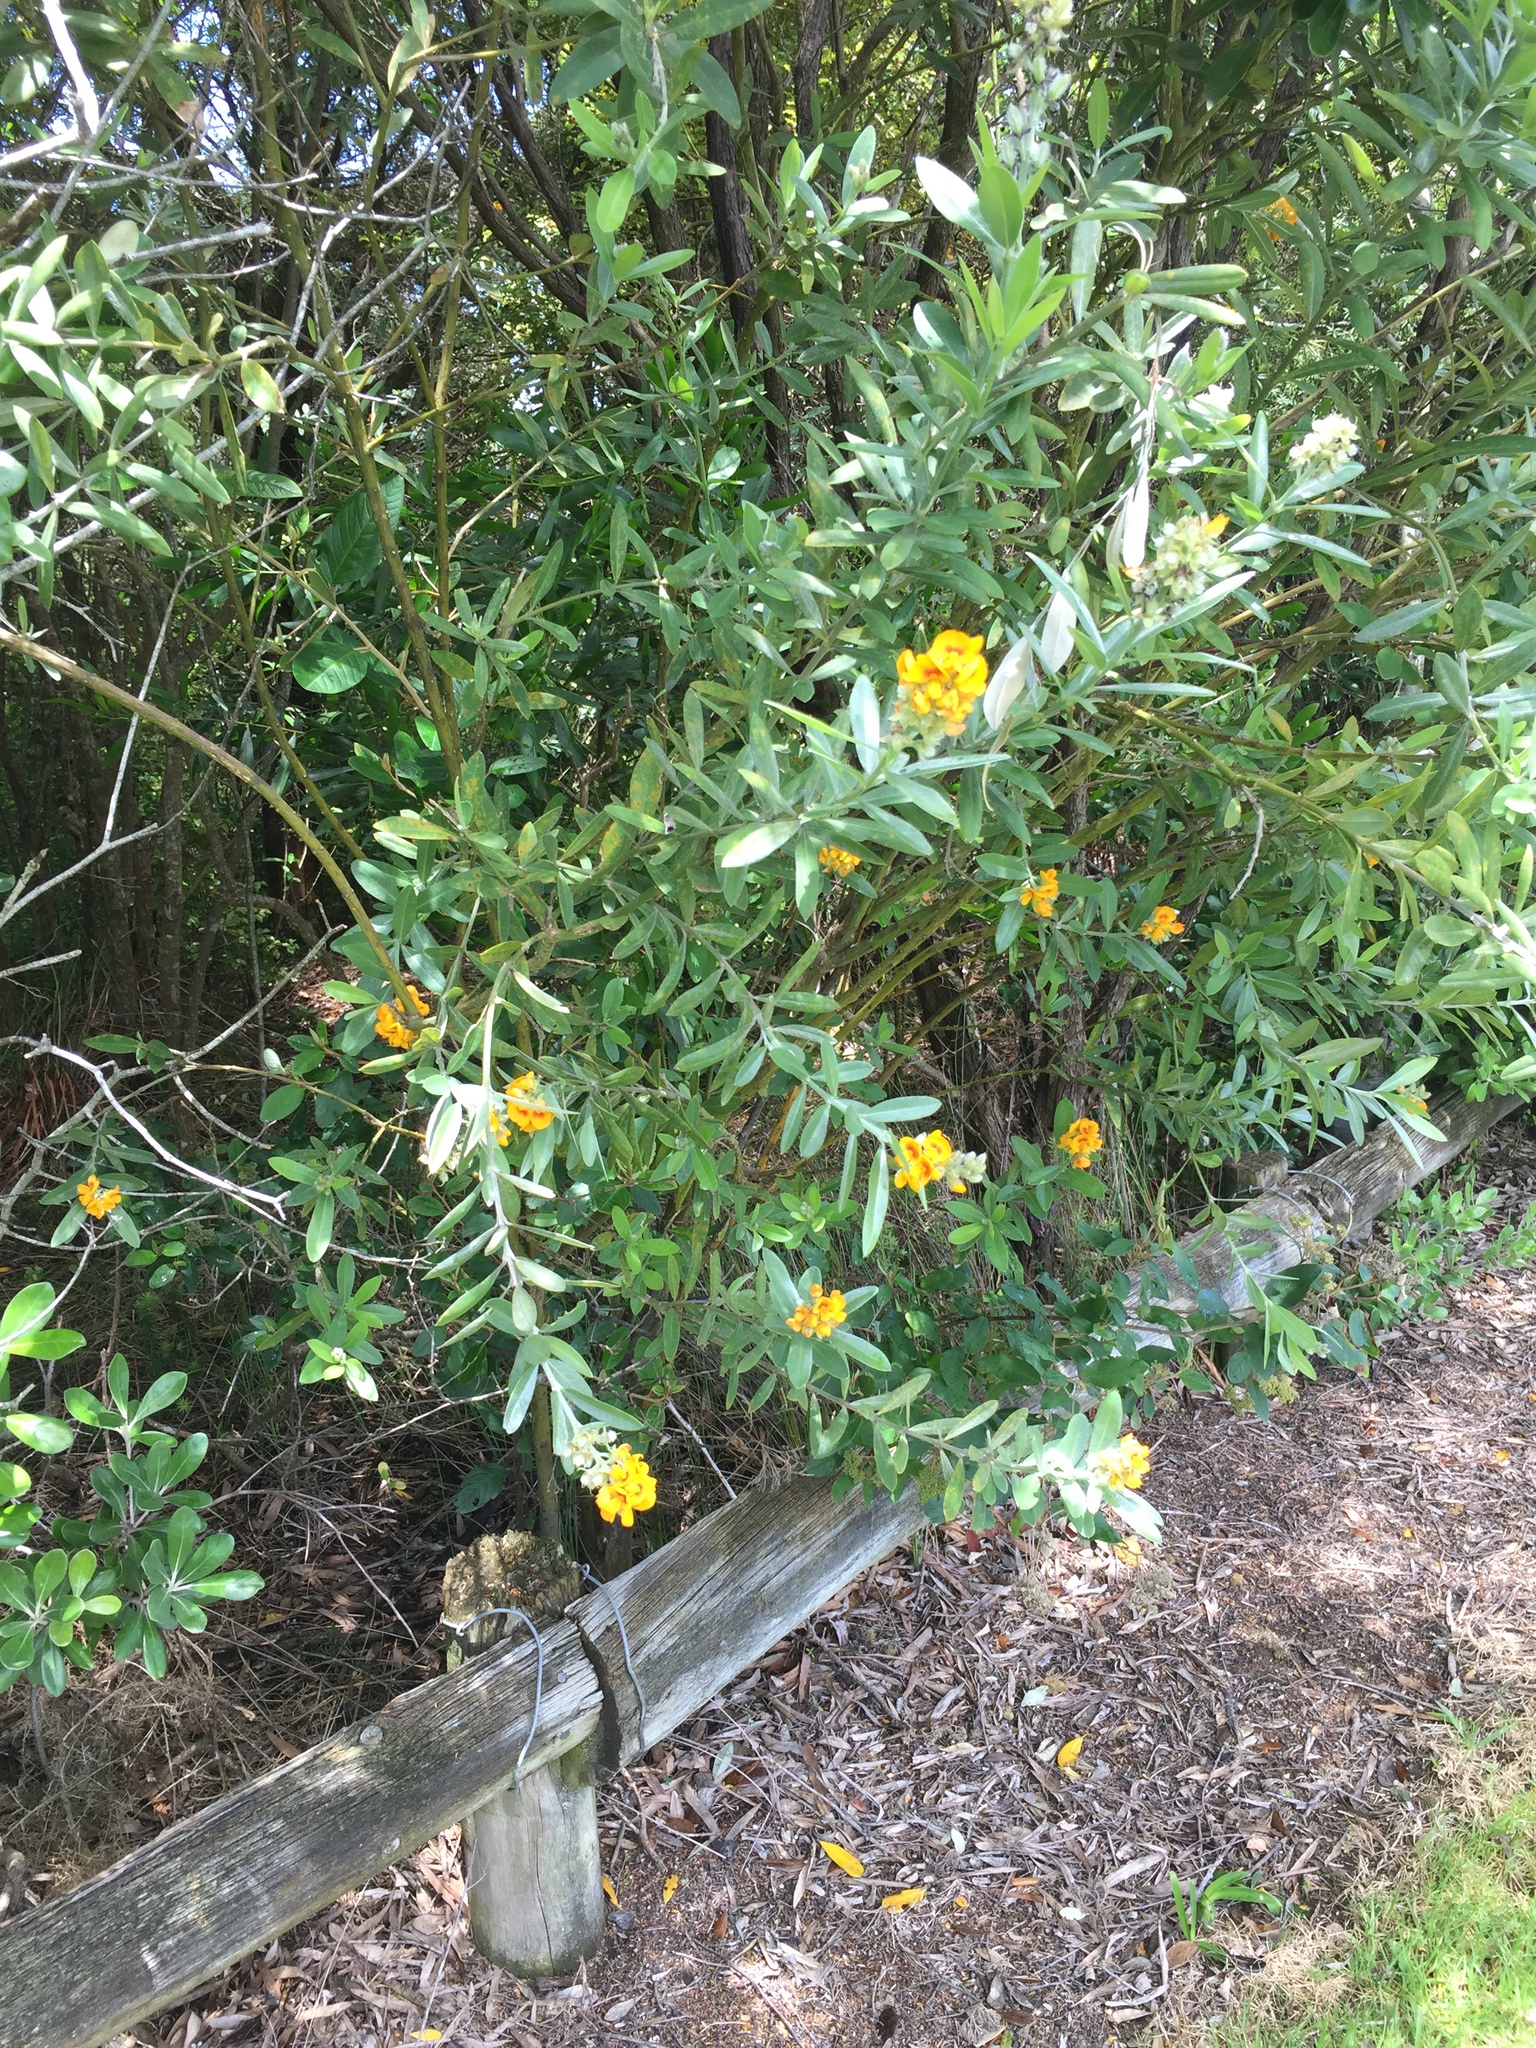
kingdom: Plantae
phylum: Tracheophyta
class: Magnoliopsida
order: Fabales
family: Fabaceae
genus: Callistachys
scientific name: Callistachys lanceolata
